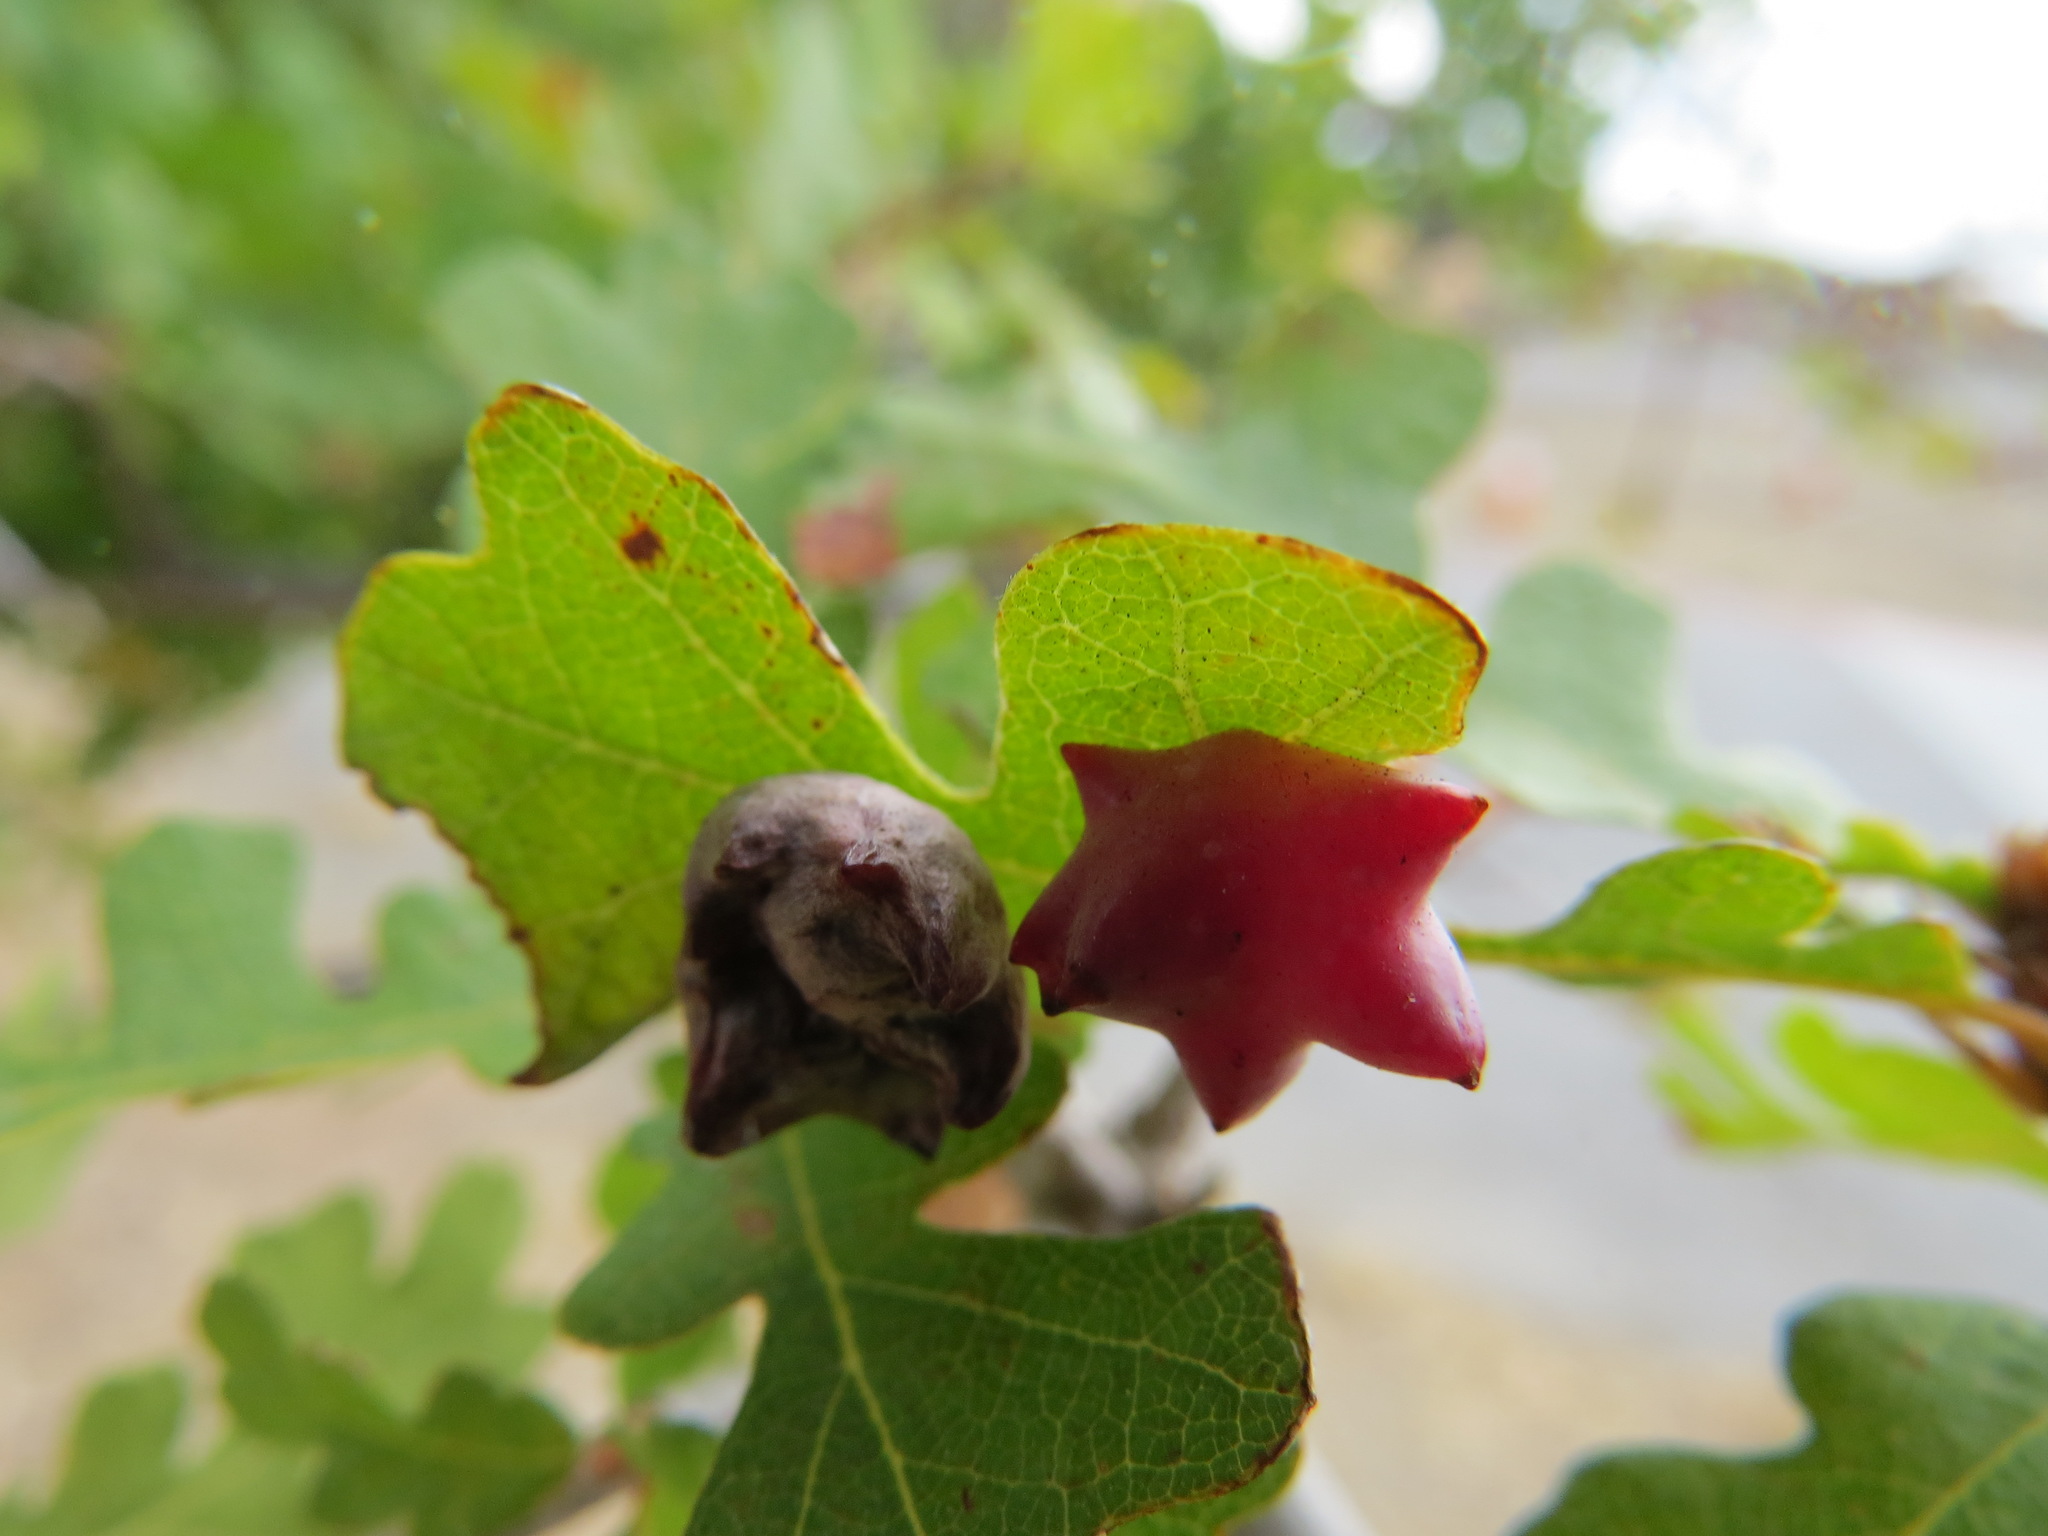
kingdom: Animalia
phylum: Arthropoda
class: Insecta
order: Hymenoptera
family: Cynipidae
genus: Cynips
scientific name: Cynips douglasi
